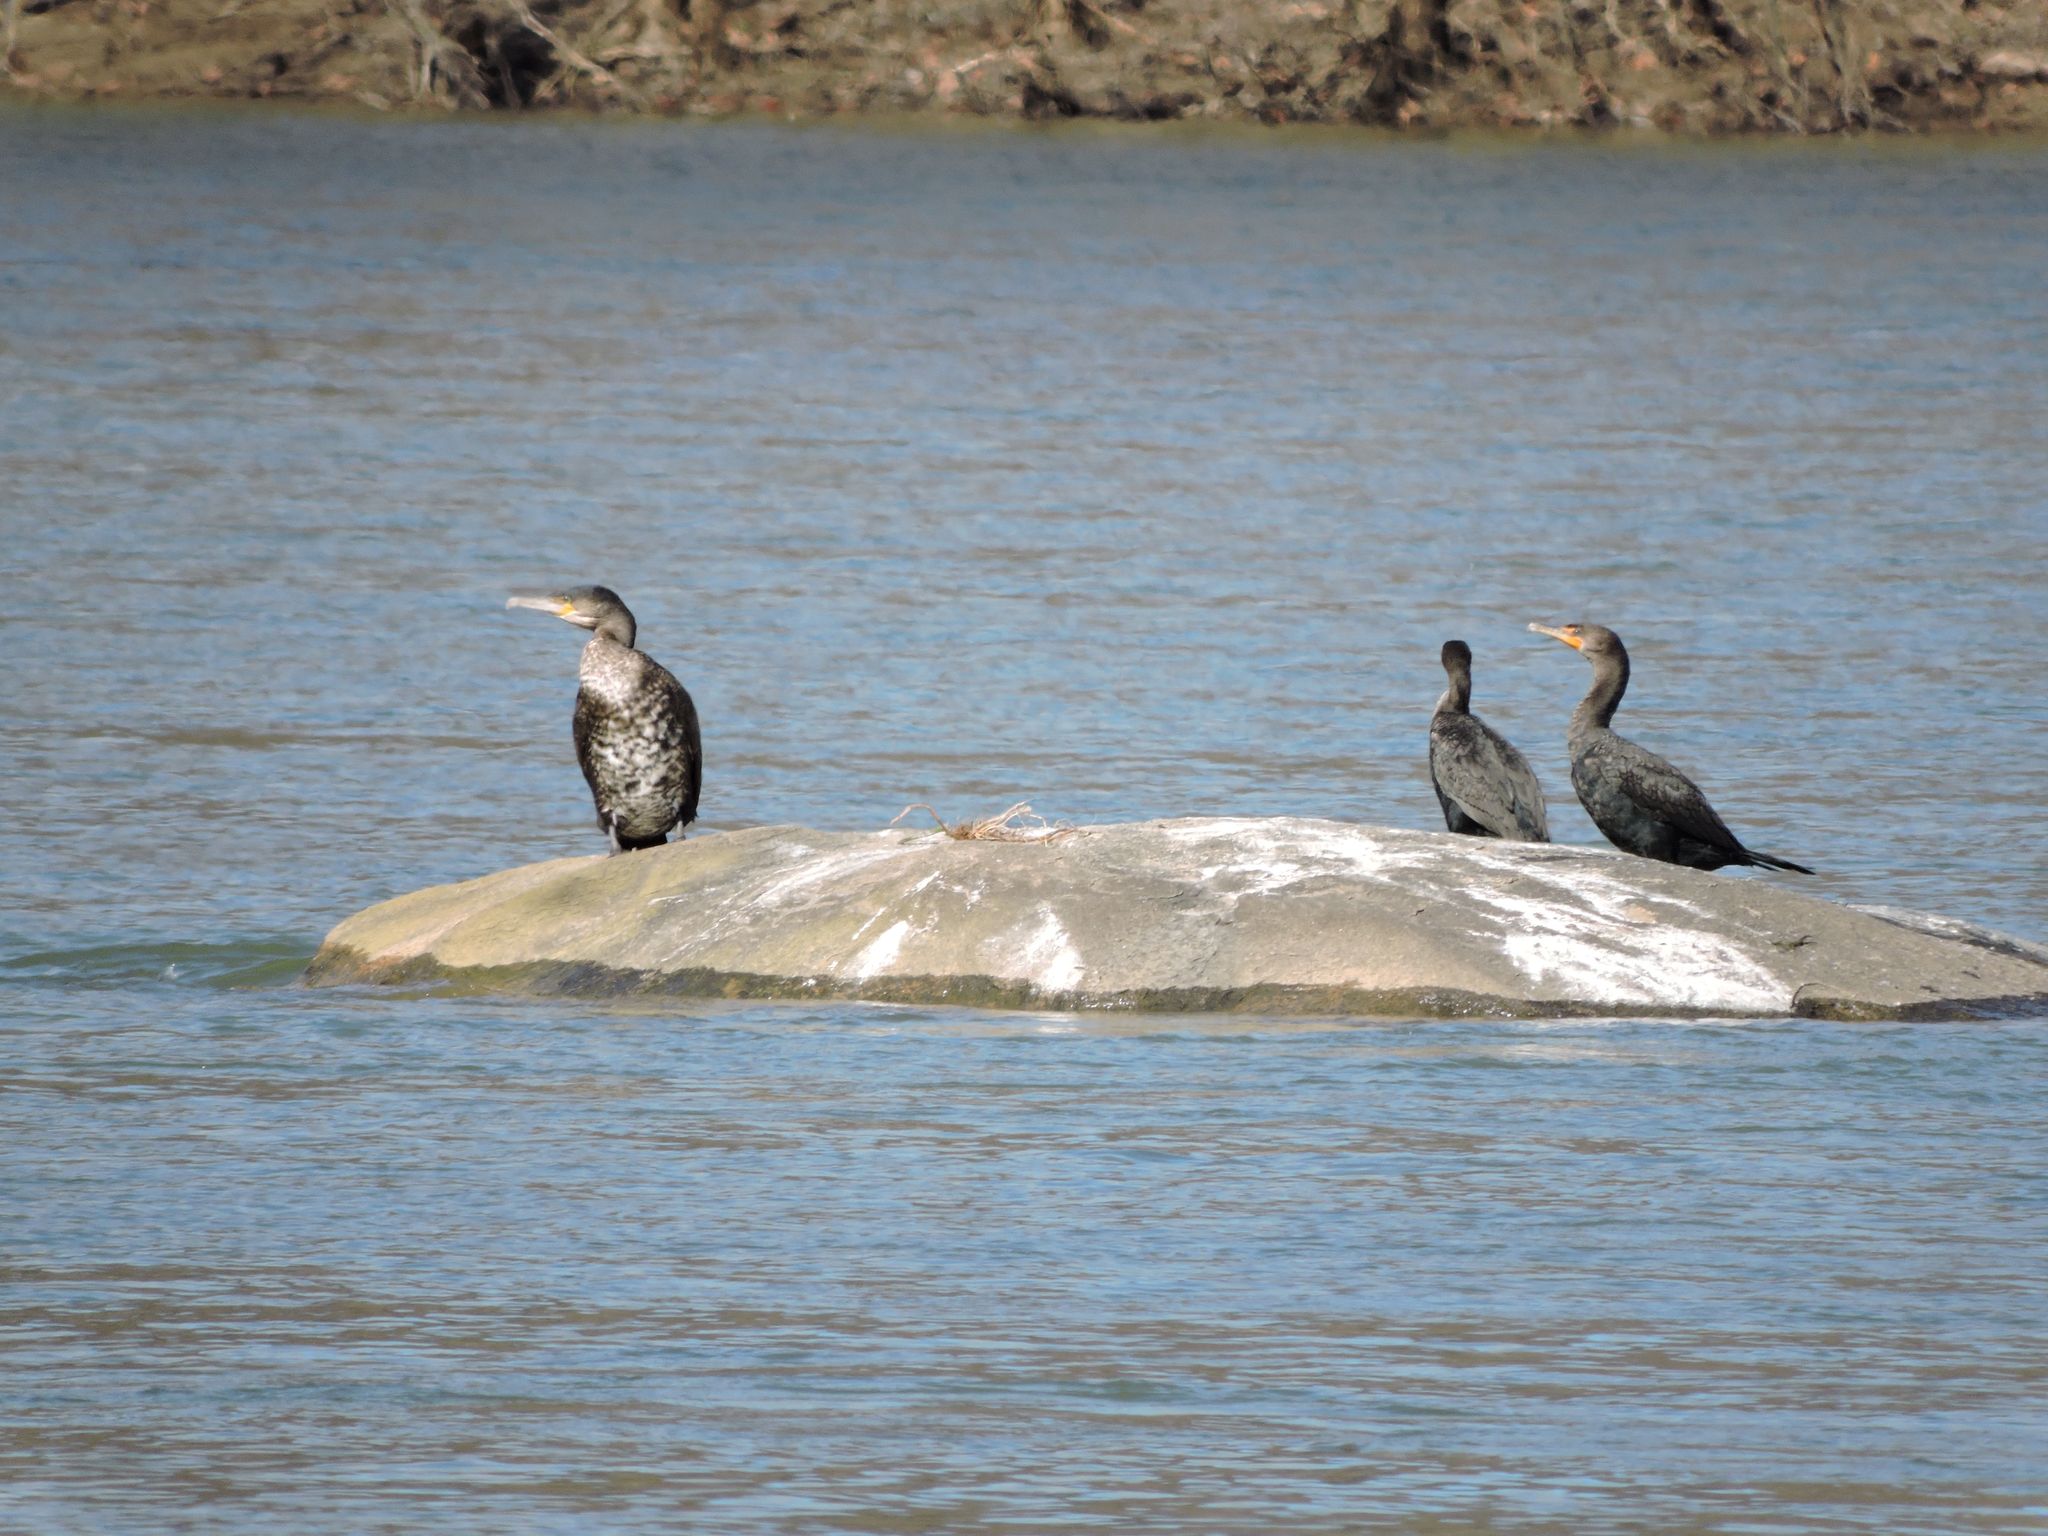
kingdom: Animalia
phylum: Chordata
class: Aves
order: Suliformes
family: Phalacrocoracidae
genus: Phalacrocorax
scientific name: Phalacrocorax auritus
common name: Double-crested cormorant
